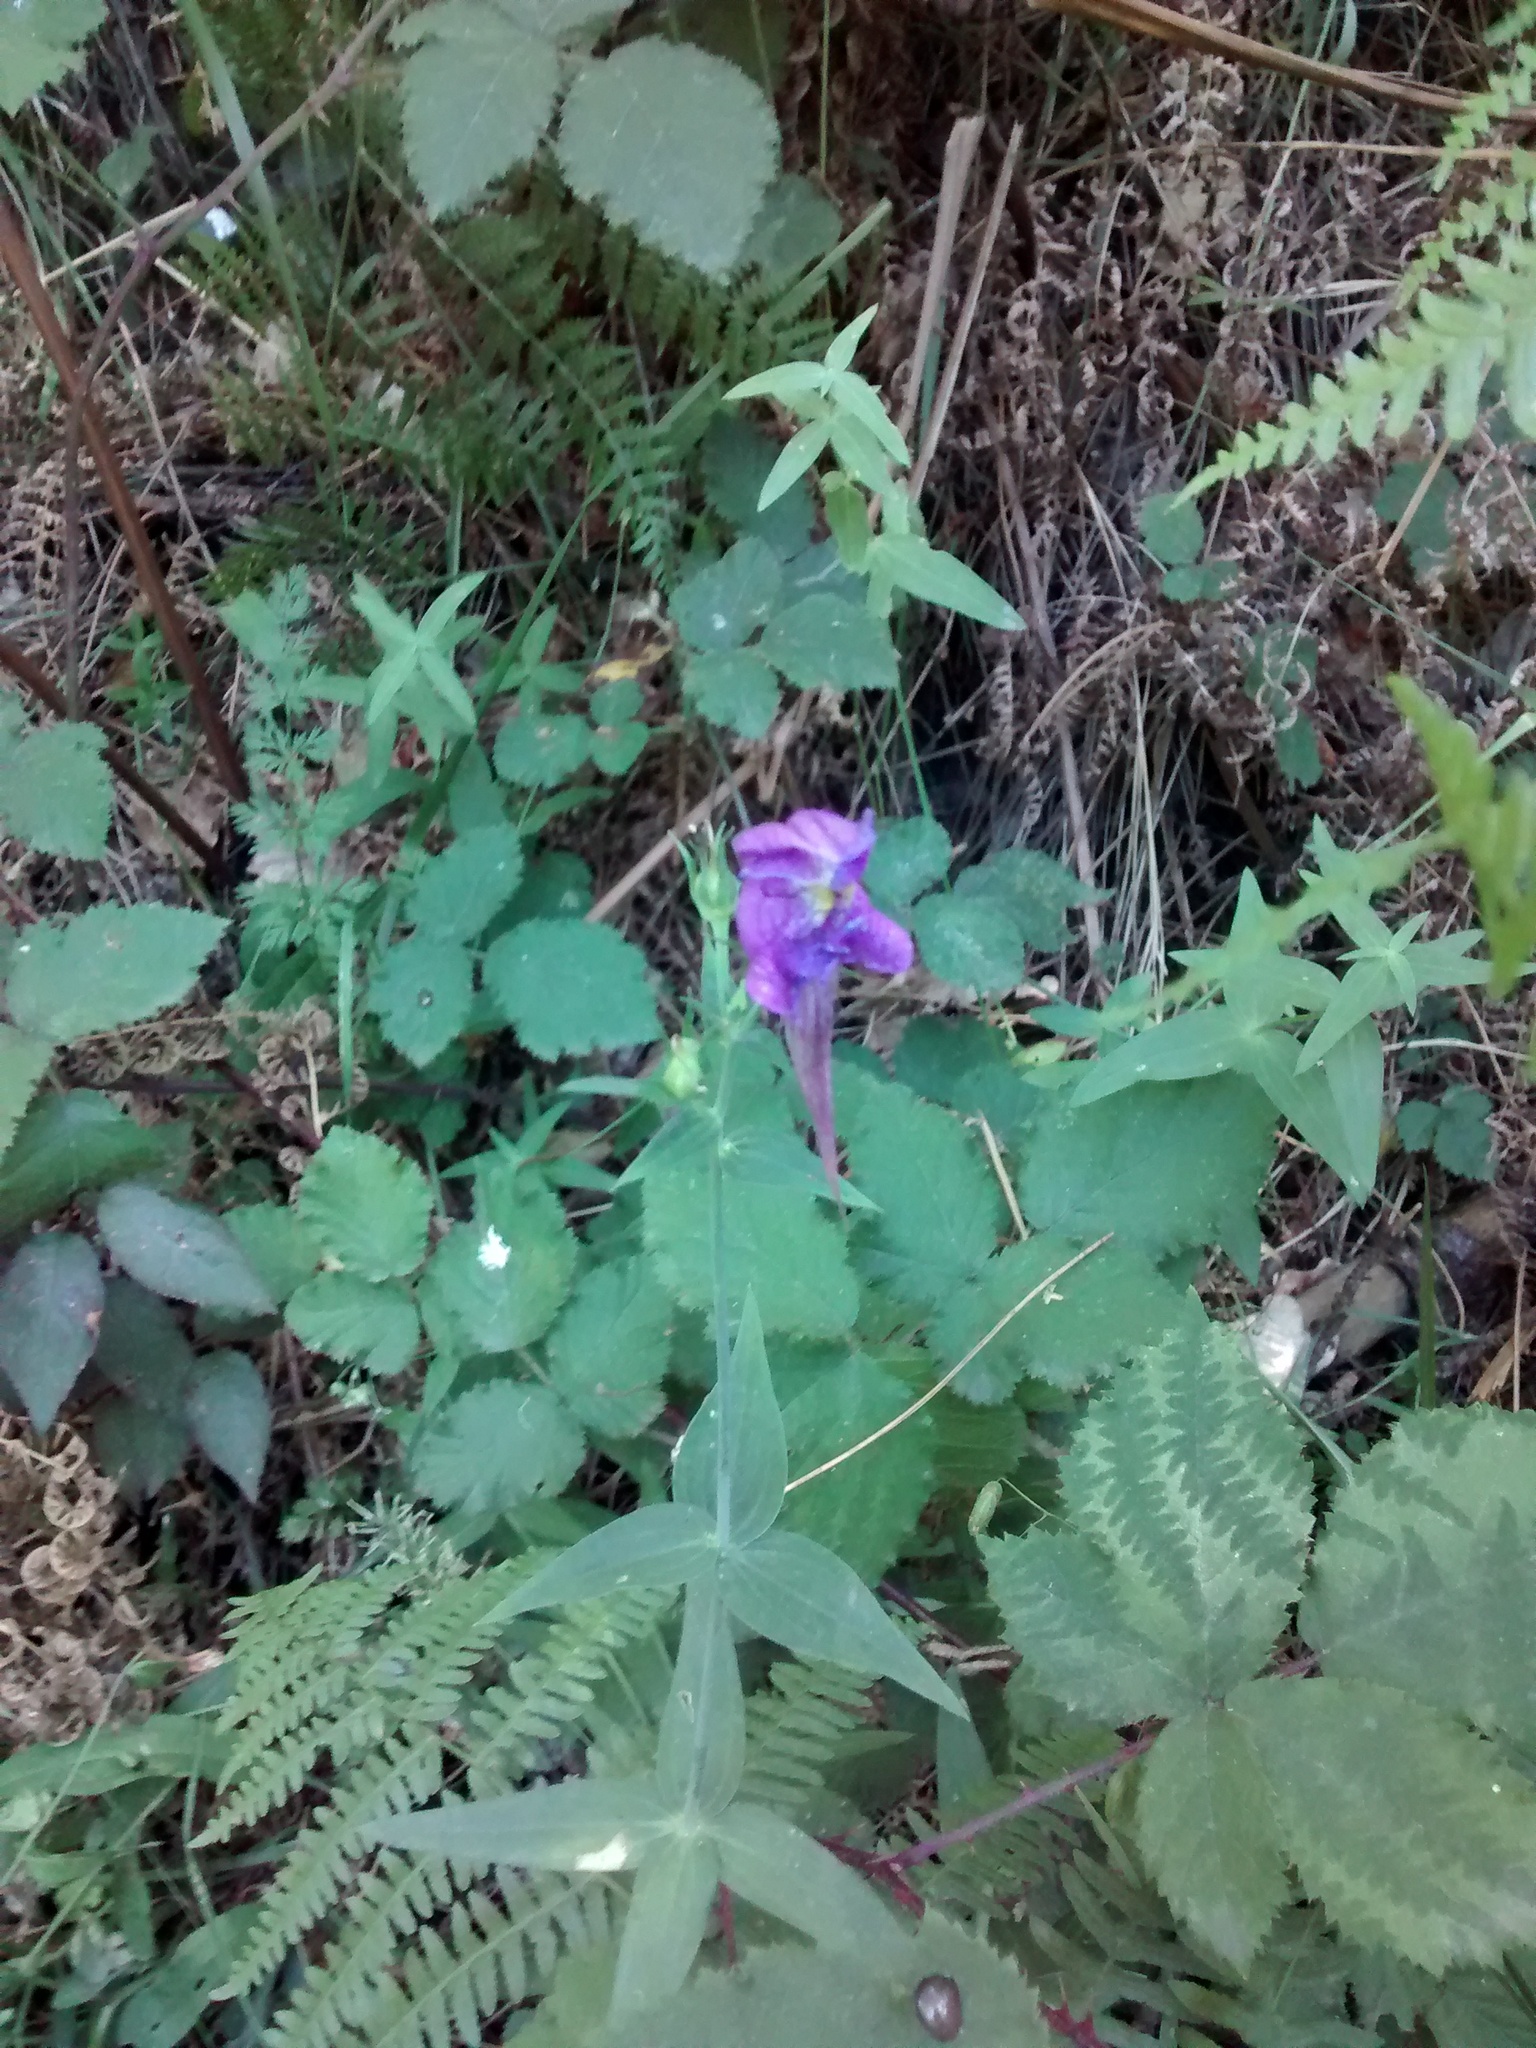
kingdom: Plantae
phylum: Tracheophyta
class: Magnoliopsida
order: Lamiales
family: Plantaginaceae
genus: Linaria
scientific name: Linaria triornithophora
